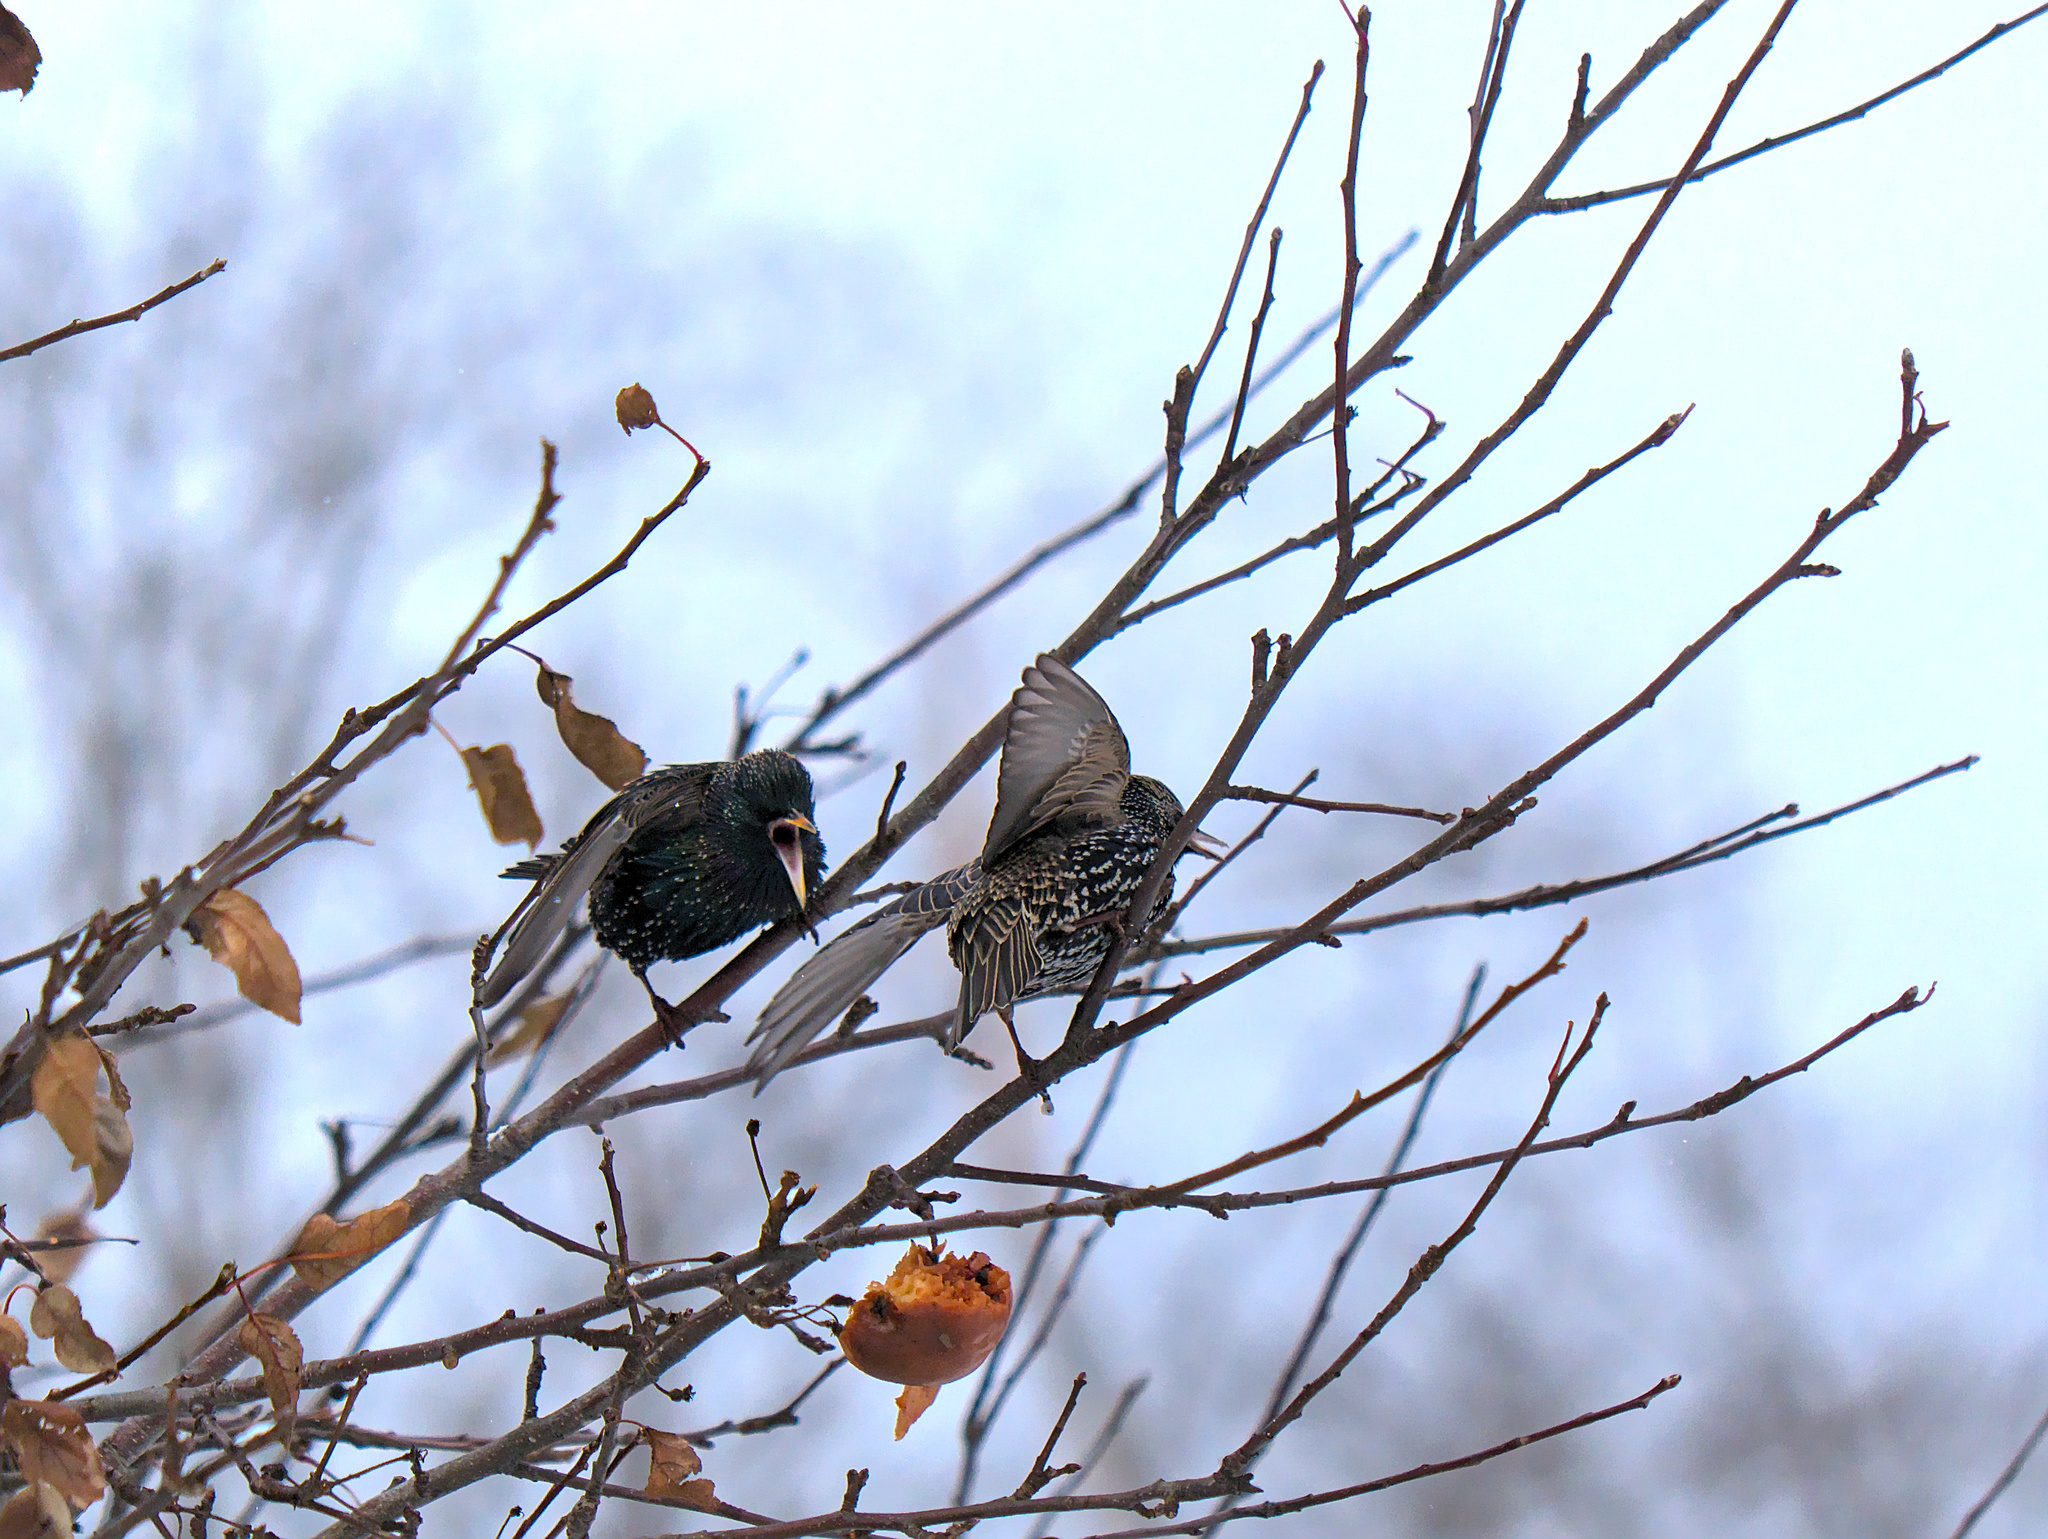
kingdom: Animalia
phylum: Chordata
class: Aves
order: Passeriformes
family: Sturnidae
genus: Sturnus
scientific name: Sturnus vulgaris
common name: Common starling
